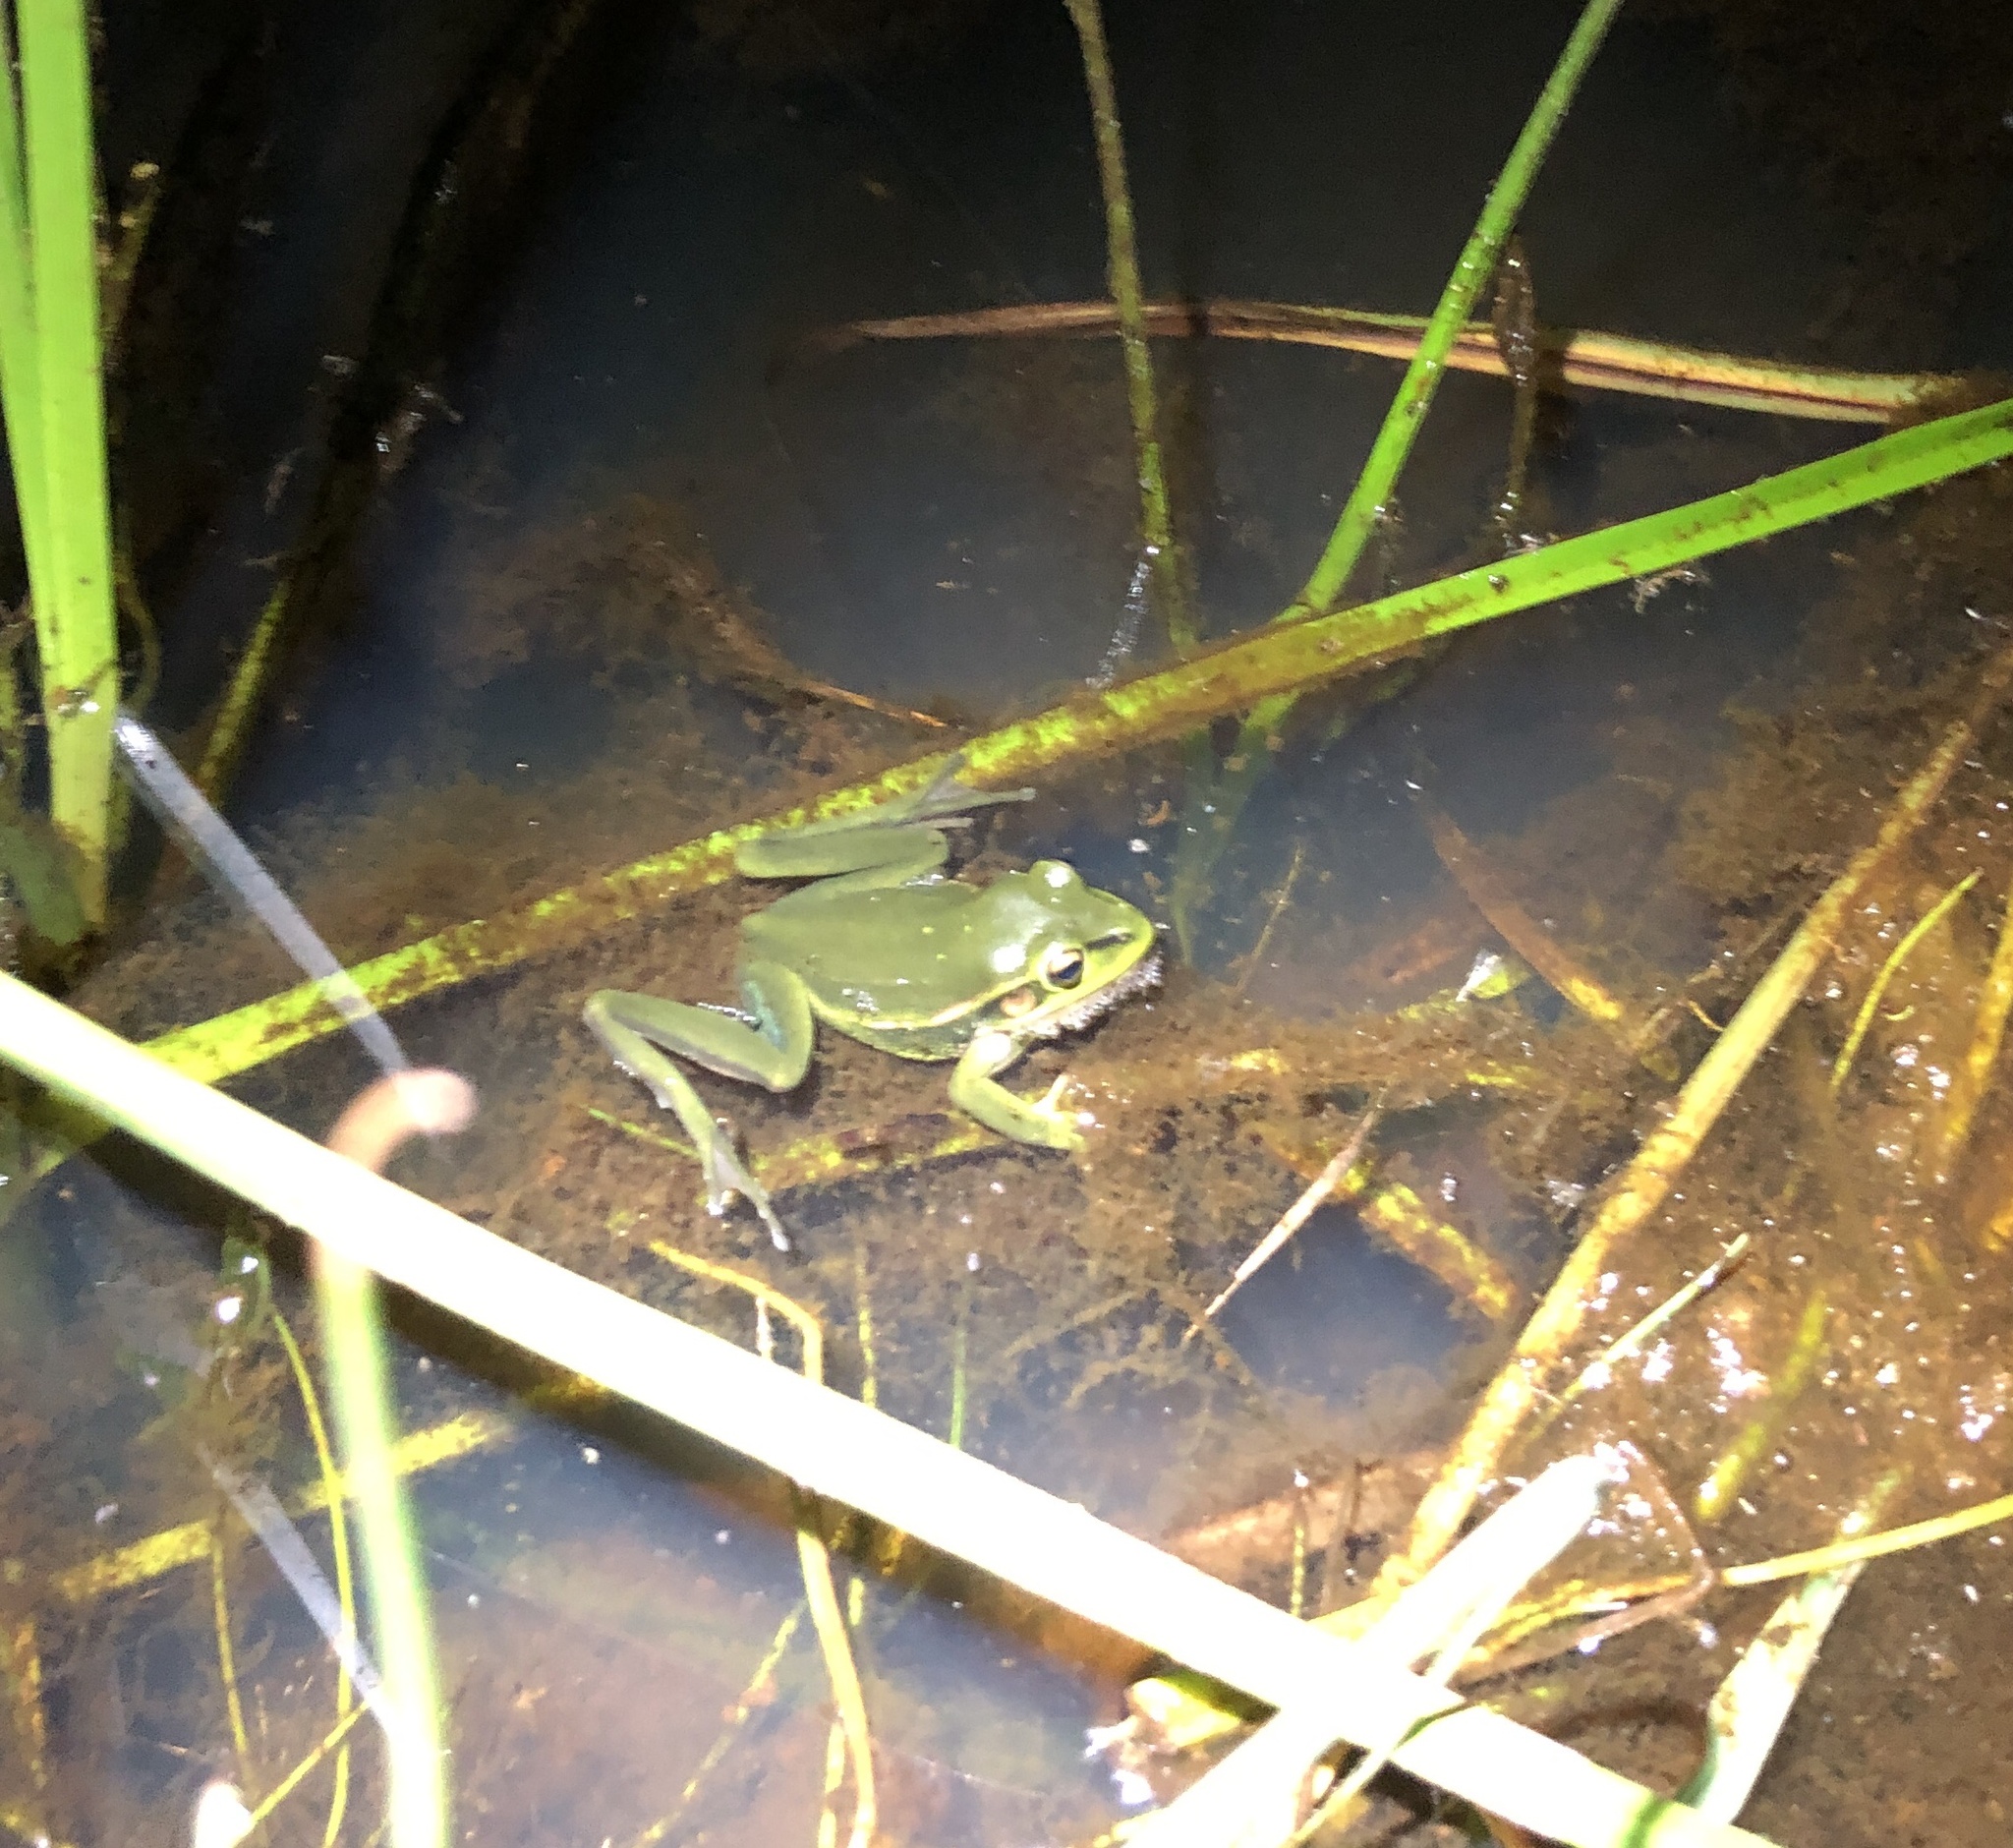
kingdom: Animalia
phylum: Chordata
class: Amphibia
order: Anura
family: Pelodryadidae
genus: Ranoidea
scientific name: Ranoidea aurea
